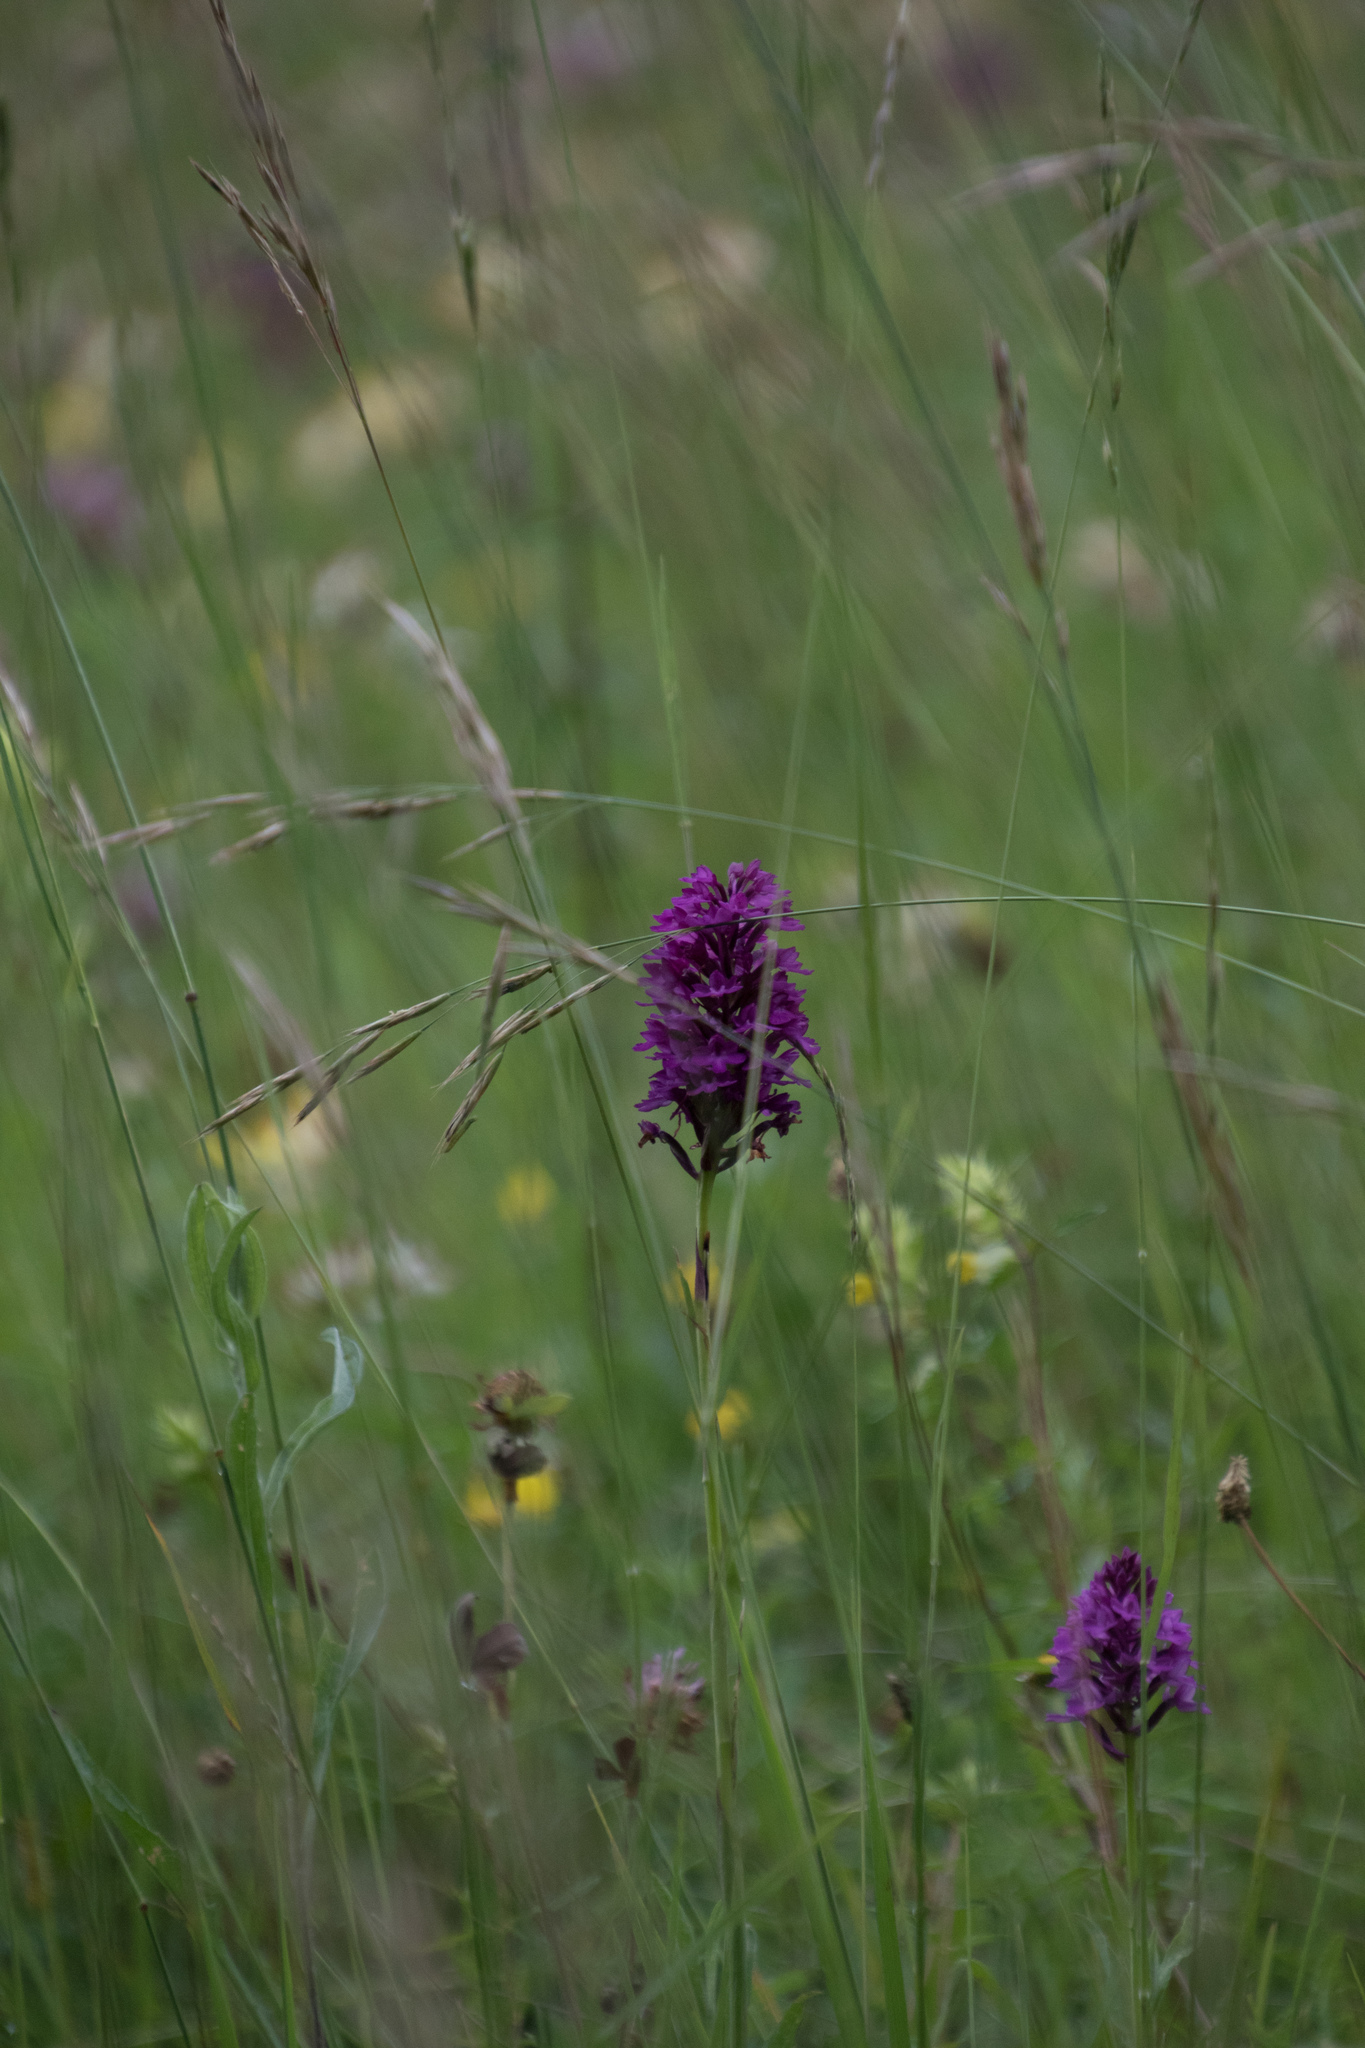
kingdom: Plantae
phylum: Tracheophyta
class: Liliopsida
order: Asparagales
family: Orchidaceae
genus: Anacamptis
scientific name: Anacamptis pyramidalis
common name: Pyramidal orchid
